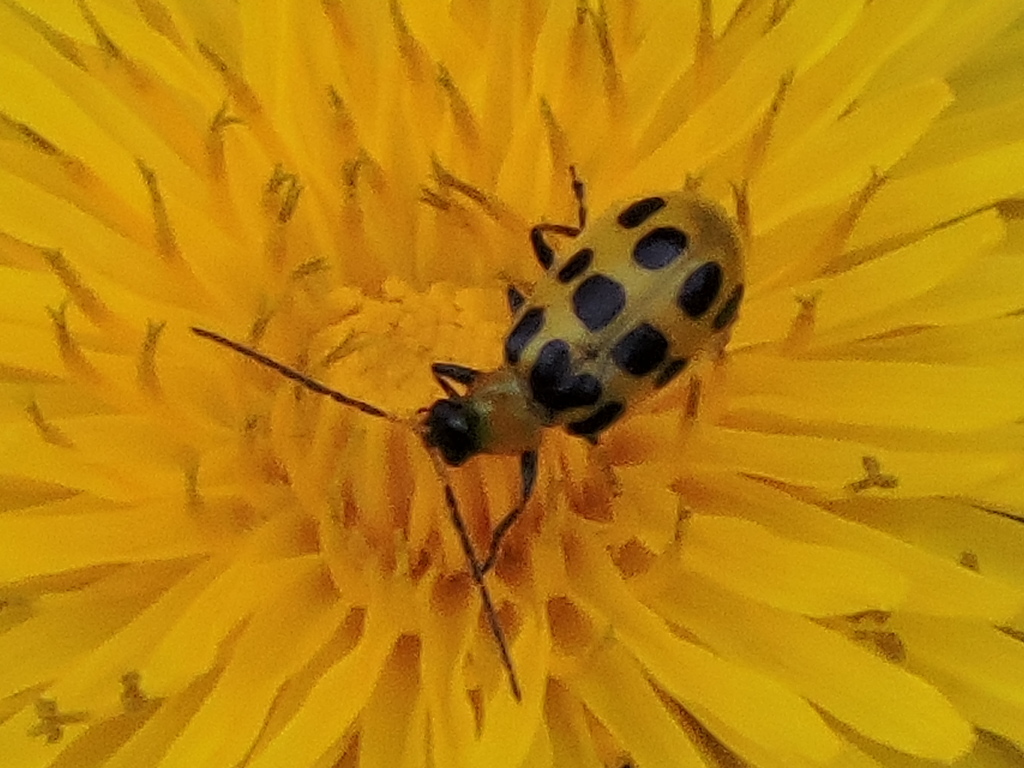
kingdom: Animalia
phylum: Arthropoda
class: Insecta
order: Coleoptera
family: Chrysomelidae
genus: Diabrotica
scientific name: Diabrotica undecimpunctata
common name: Spotted cucumber beetle
